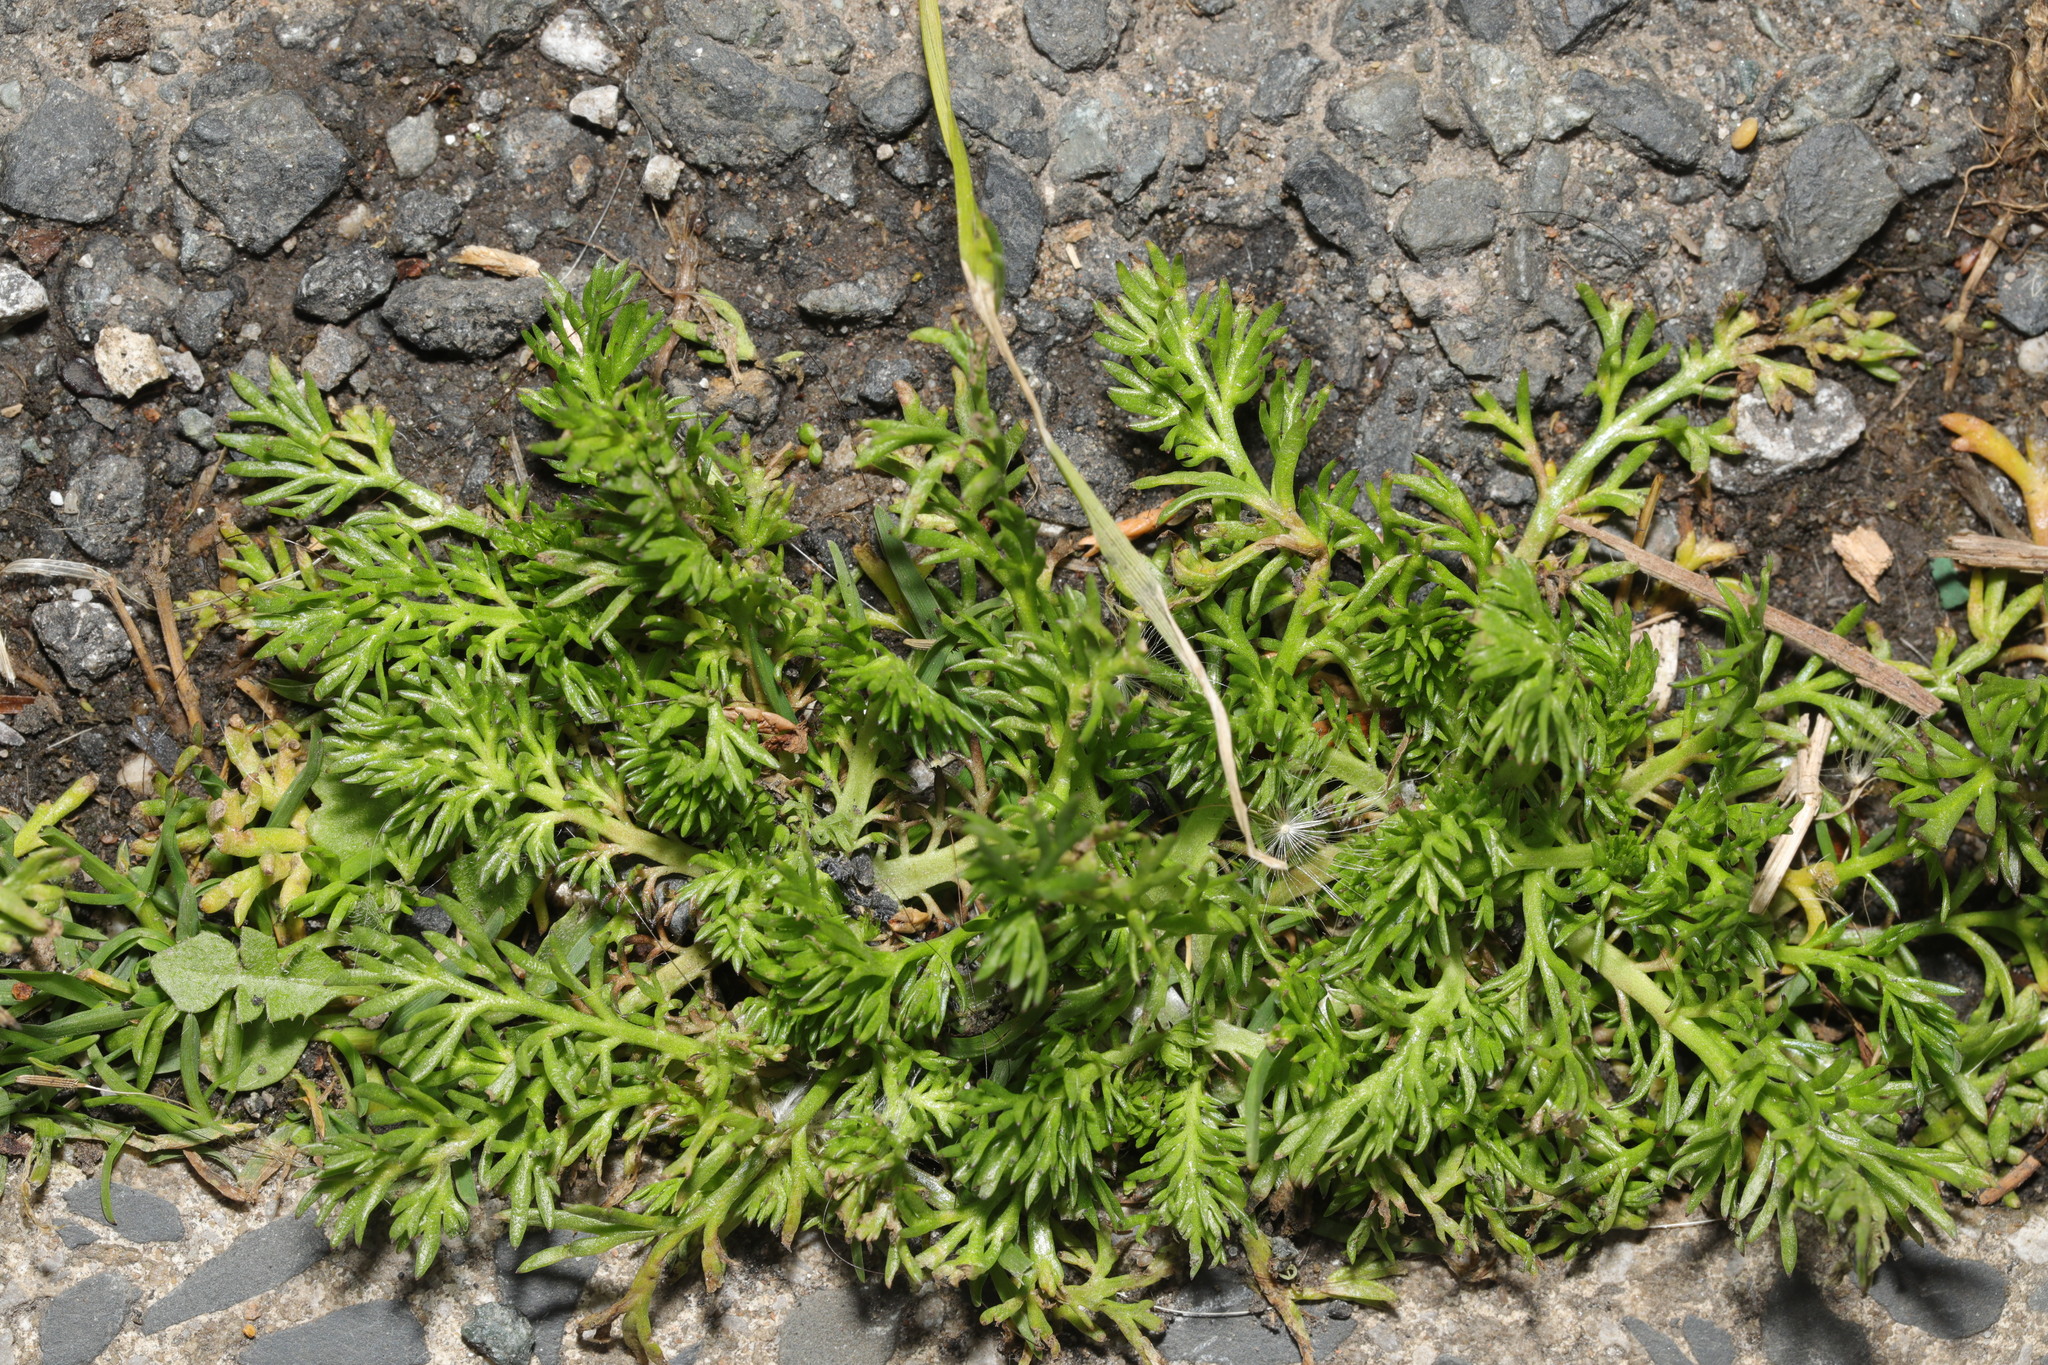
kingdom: Plantae
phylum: Tracheophyta
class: Magnoliopsida
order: Brassicales
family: Brassicaceae
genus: Lepidium
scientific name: Lepidium didymum
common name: Lesser swinecress
